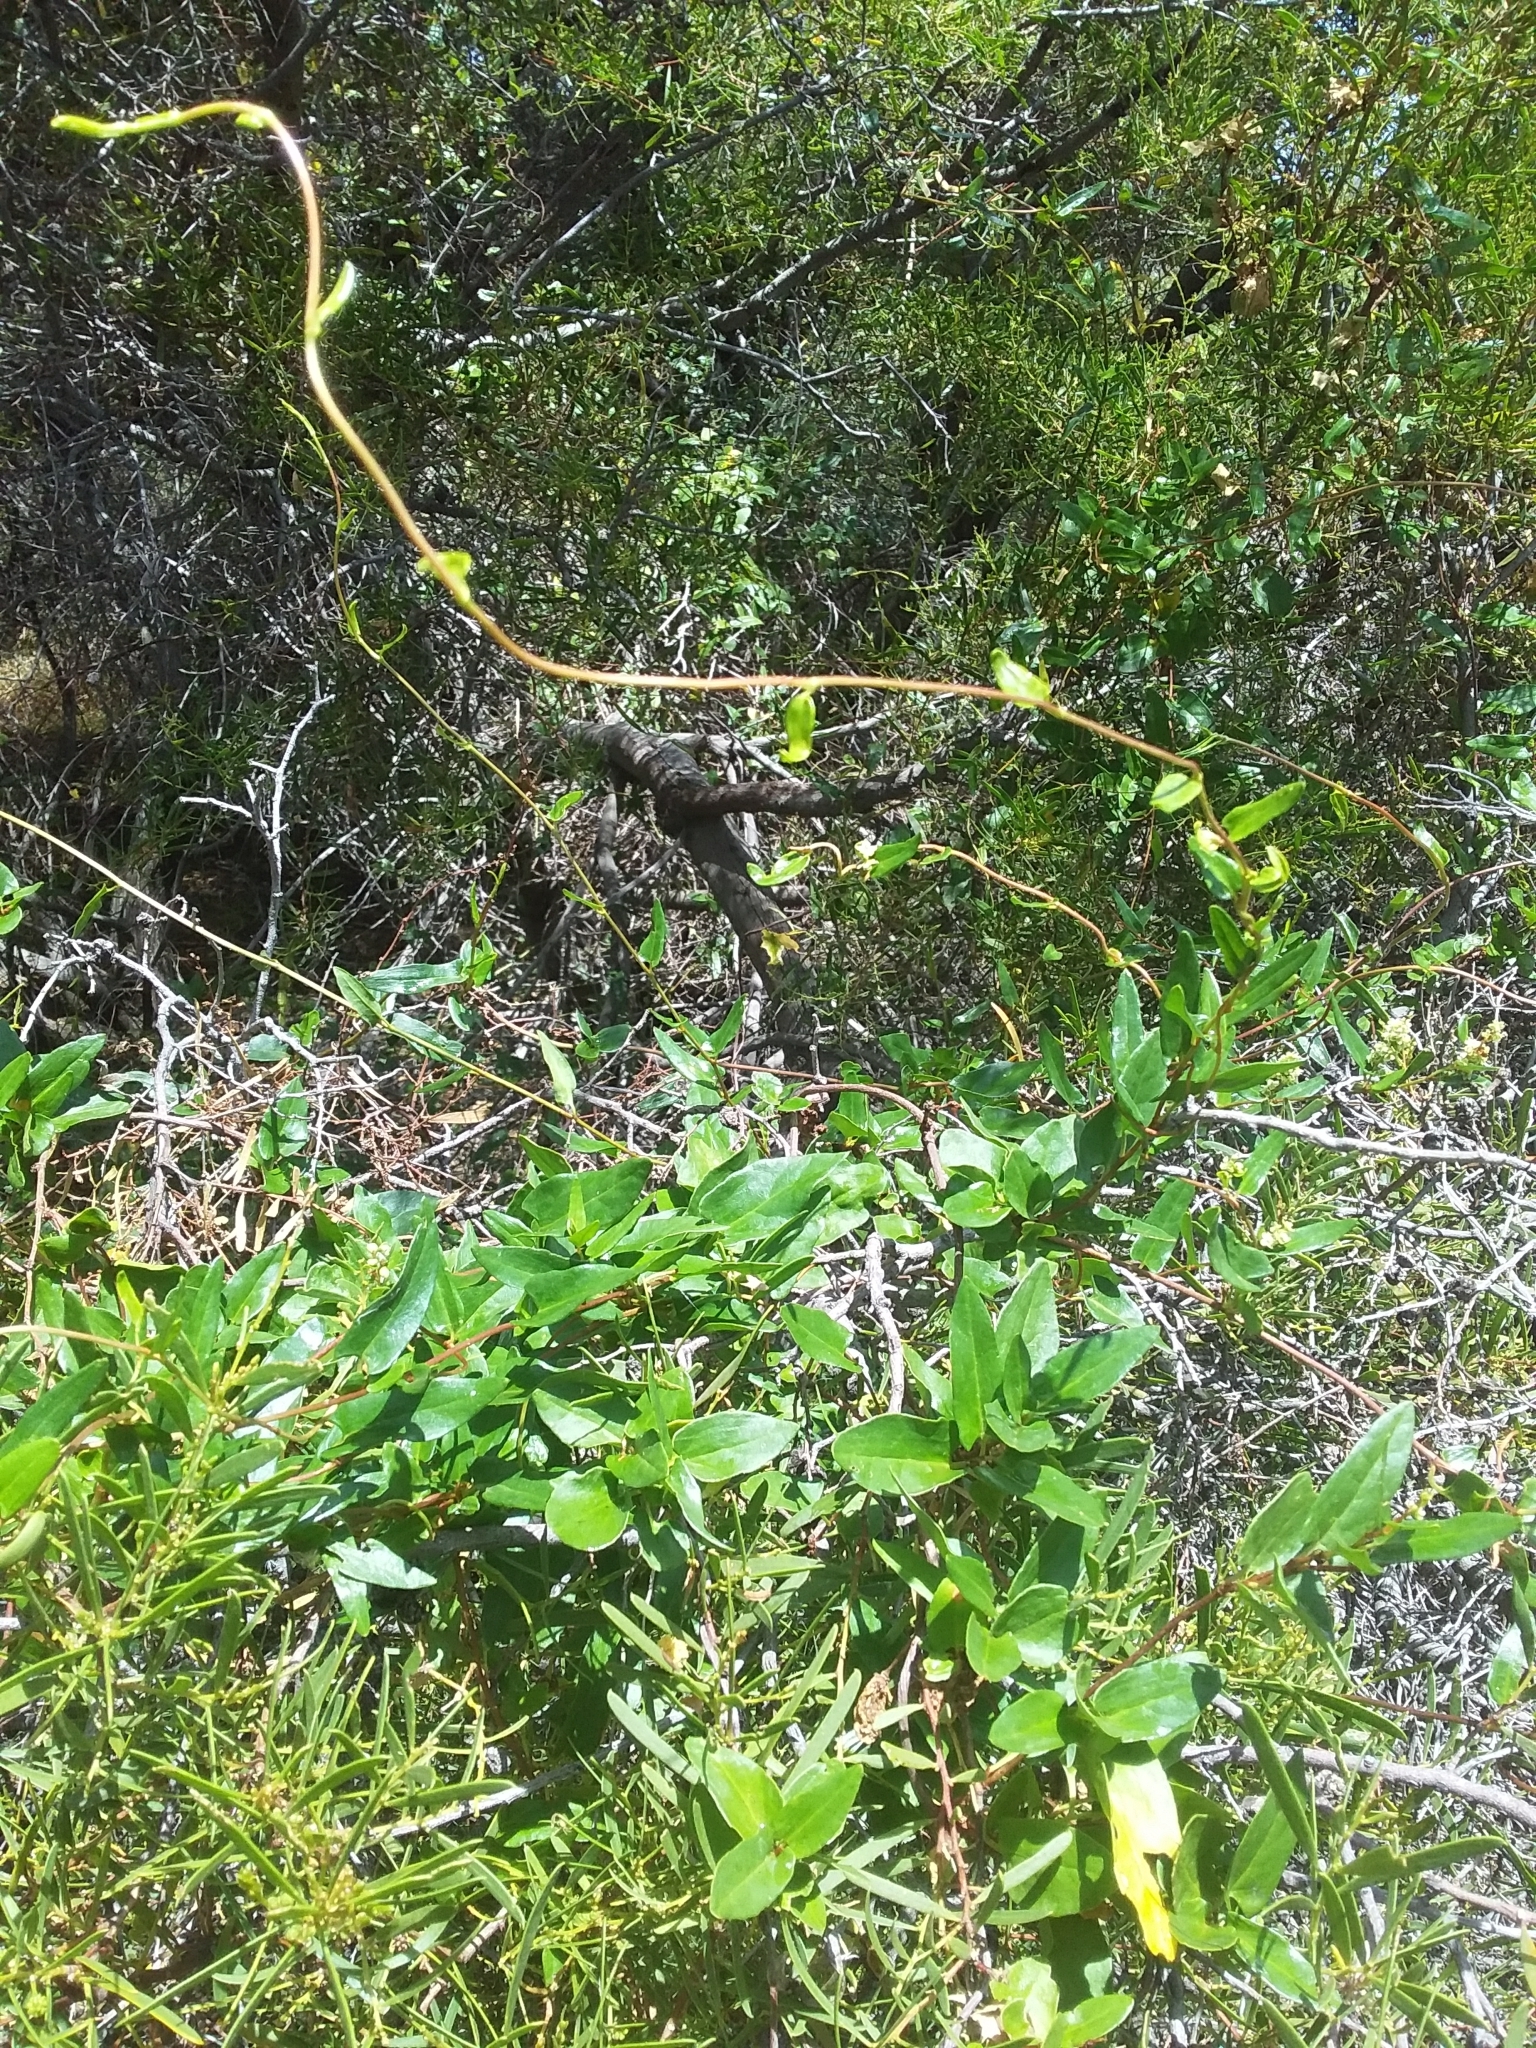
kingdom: Plantae
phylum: Tracheophyta
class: Magnoliopsida
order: Caryophyllales
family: Polygonaceae
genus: Muehlenbeckia
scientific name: Muehlenbeckia gunnii
